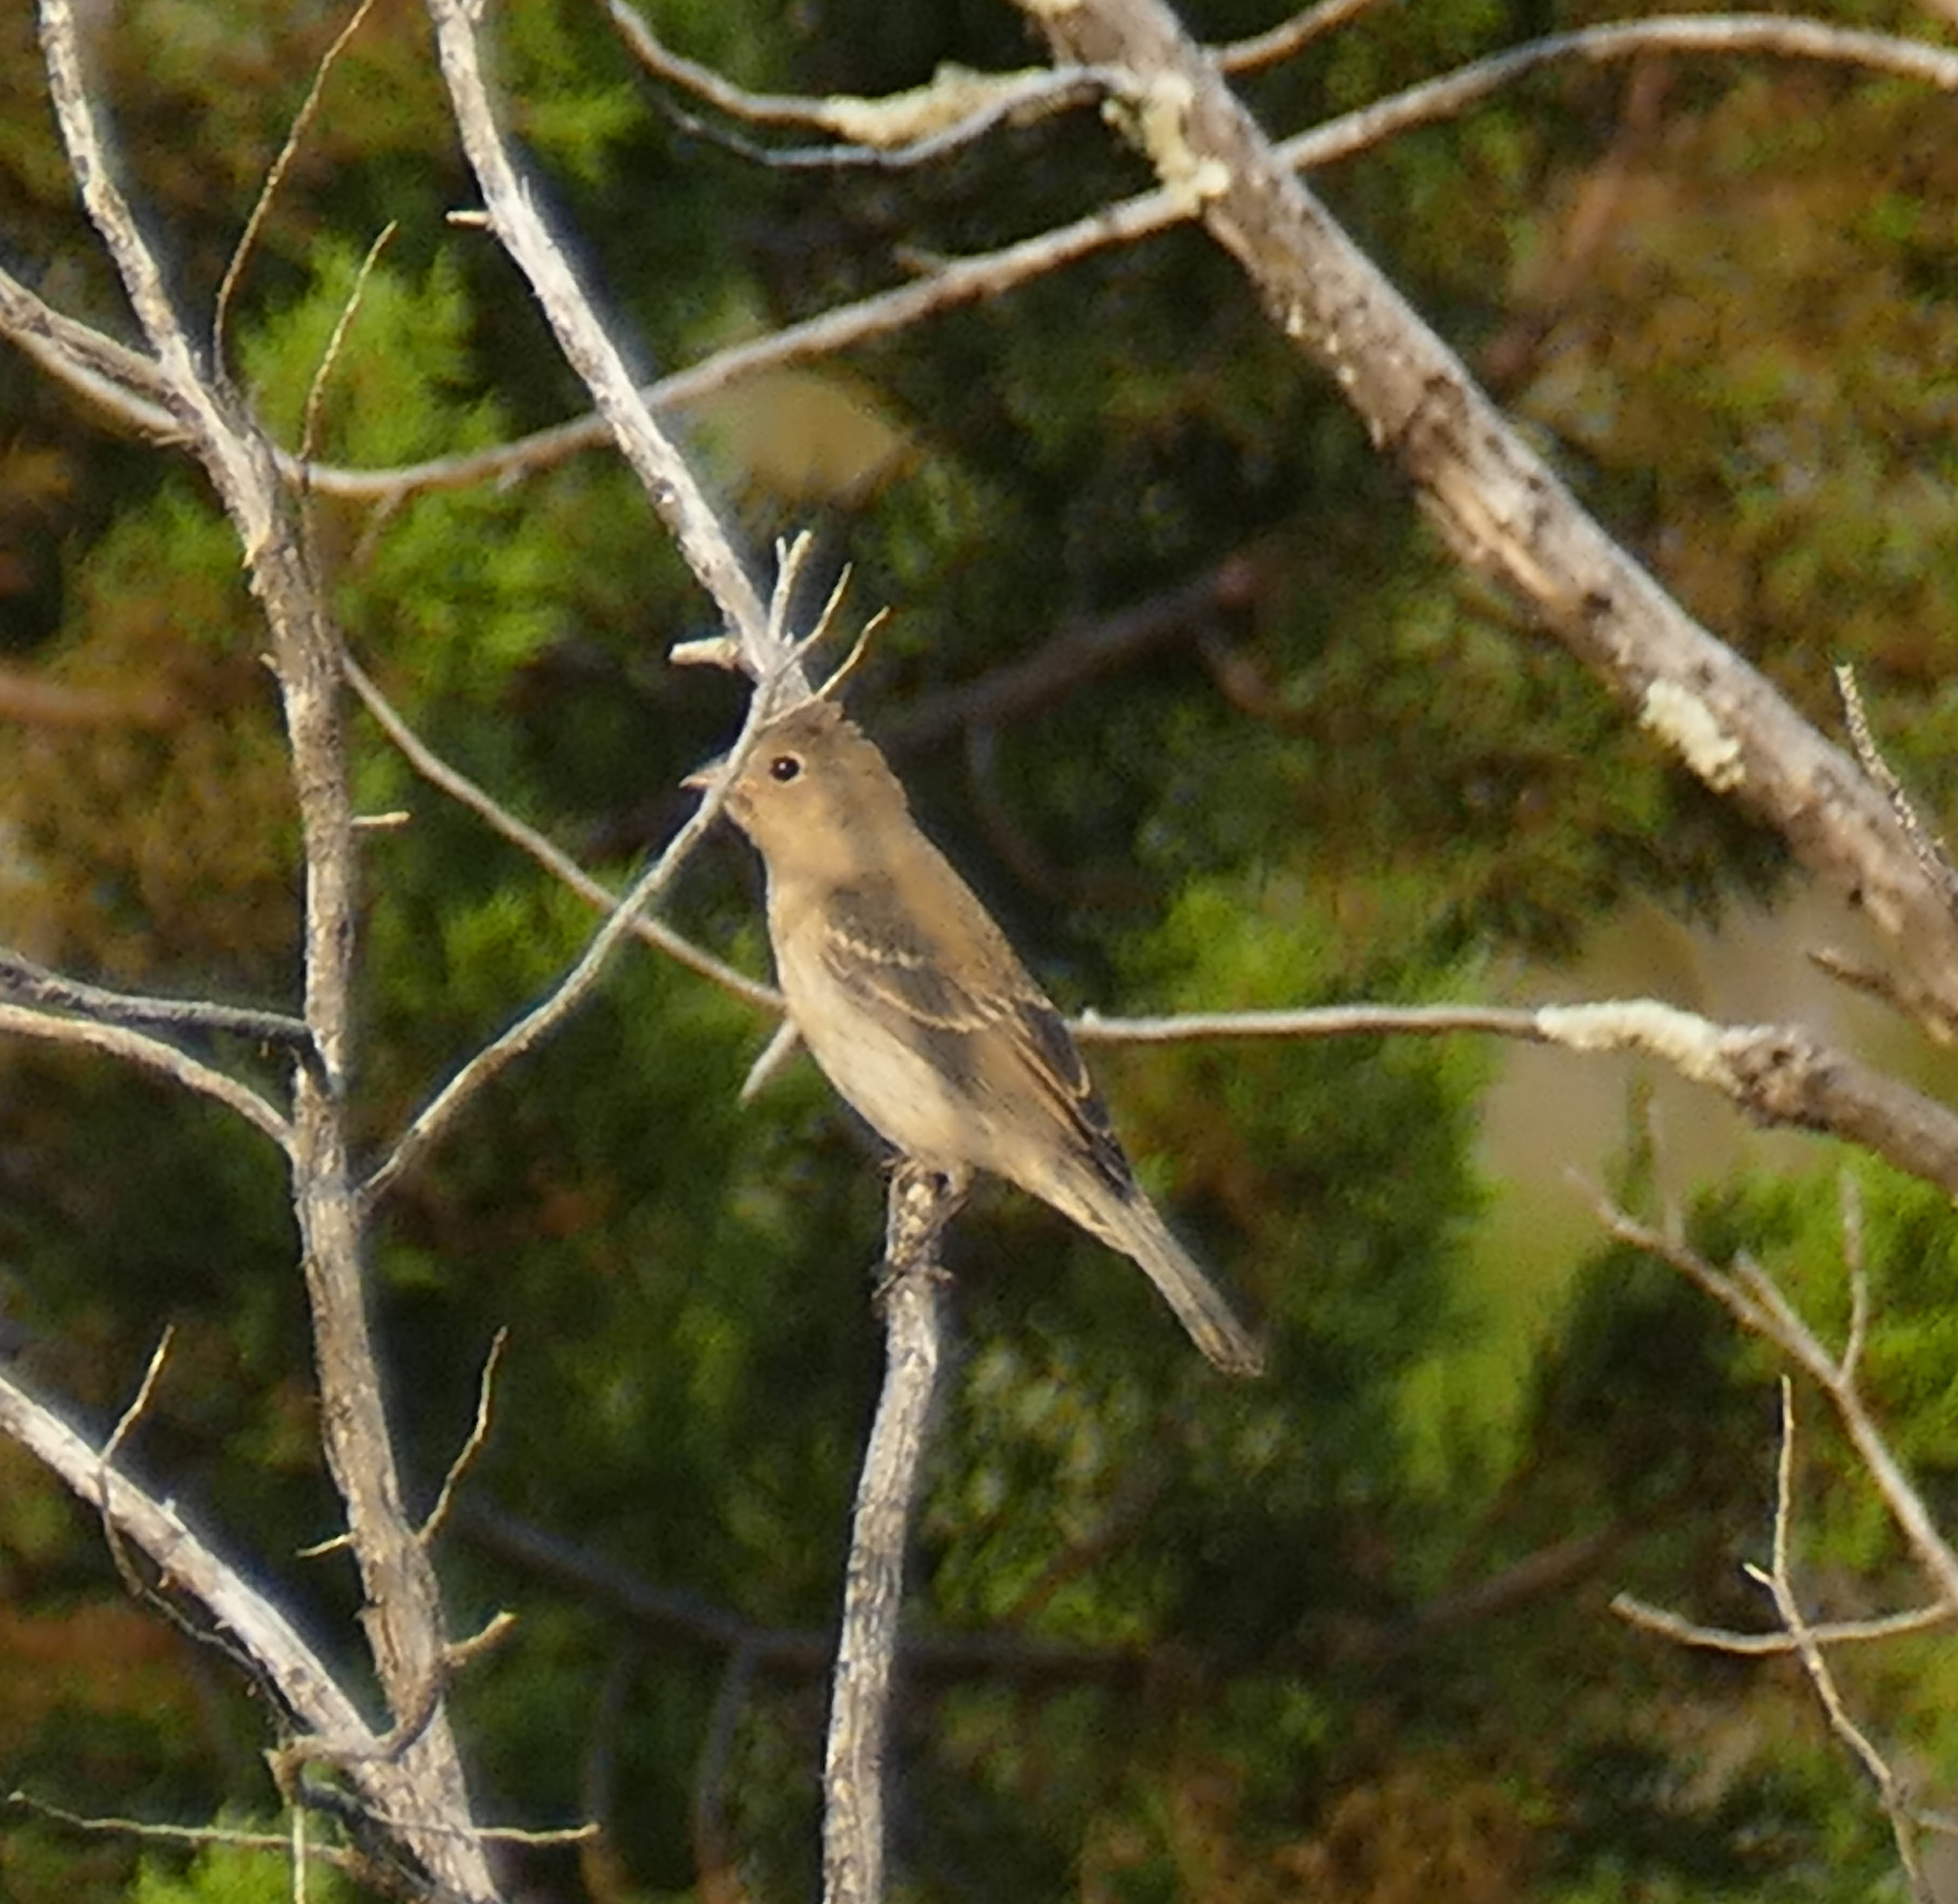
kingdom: Animalia
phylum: Chordata
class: Aves
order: Passeriformes
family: Cardinalidae
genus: Passerina
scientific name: Passerina amoena
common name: Lazuli bunting
